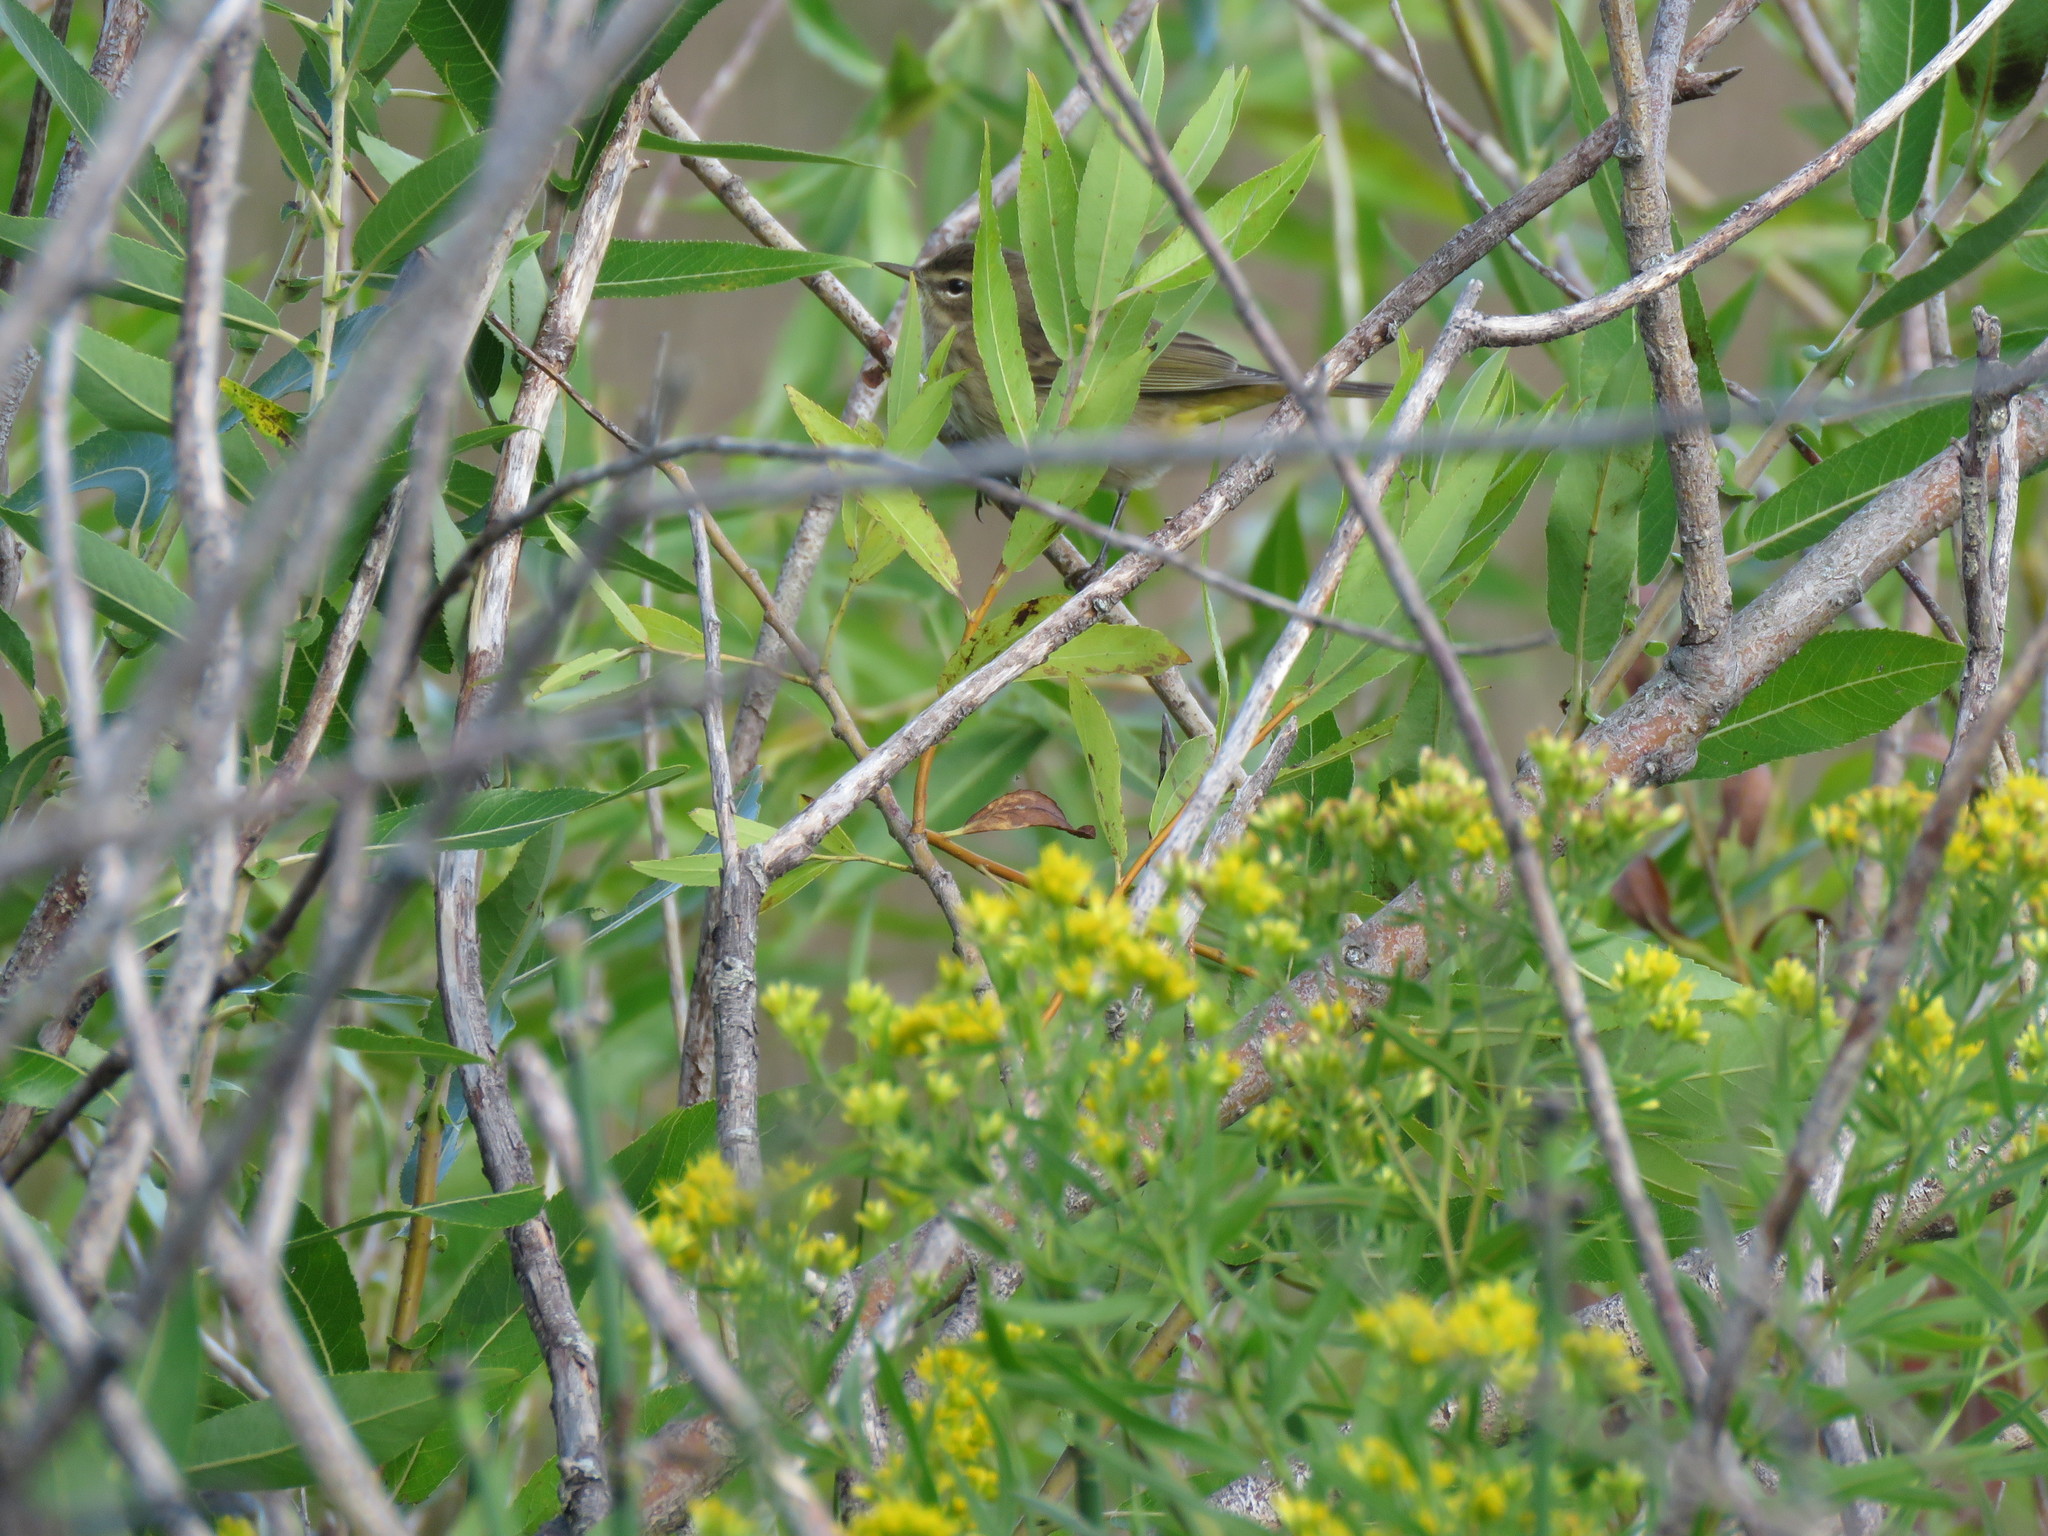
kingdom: Animalia
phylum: Chordata
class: Aves
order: Passeriformes
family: Parulidae
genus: Setophaga
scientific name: Setophaga palmarum
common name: Palm warbler
